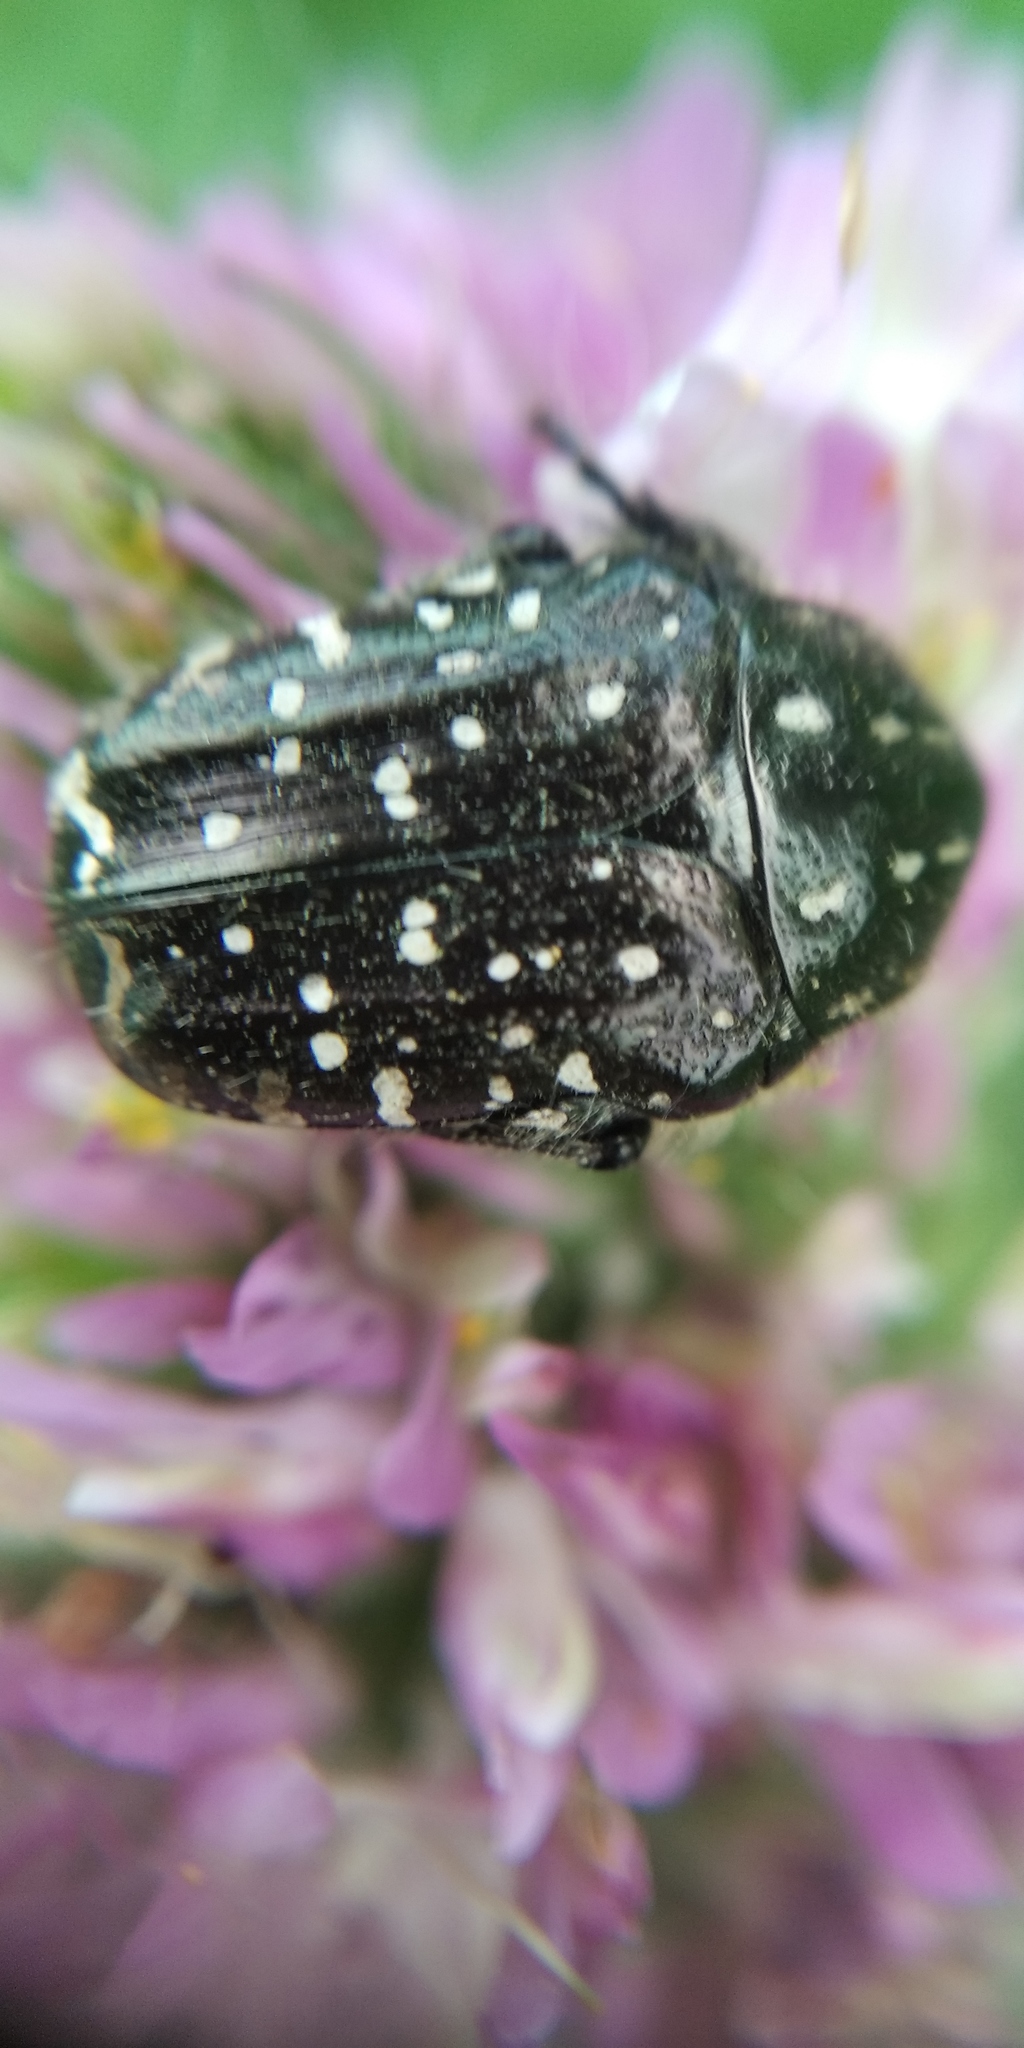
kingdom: Animalia
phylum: Arthropoda
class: Insecta
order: Coleoptera
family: Scarabaeidae
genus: Oxythyrea
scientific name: Oxythyrea funesta
